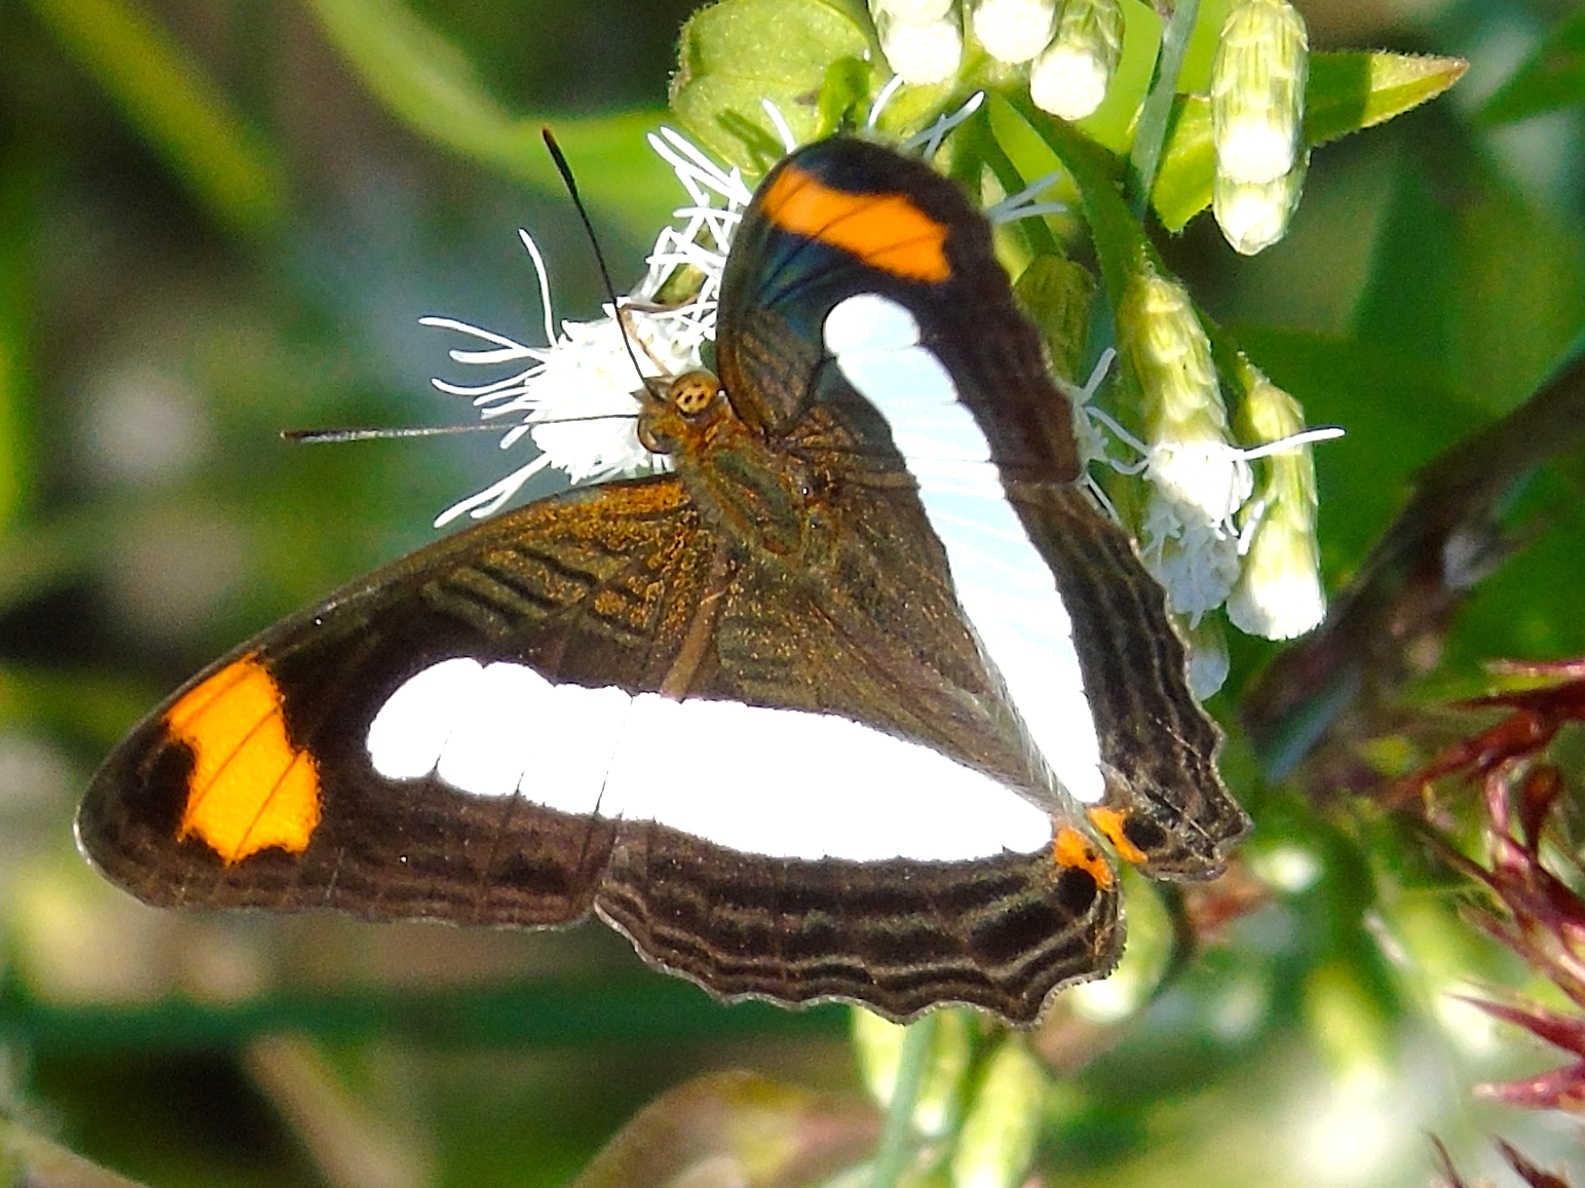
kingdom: Animalia
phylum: Arthropoda
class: Insecta
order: Lepidoptera
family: Nymphalidae
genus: Limenitis
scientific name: Limenitis iphiclus
